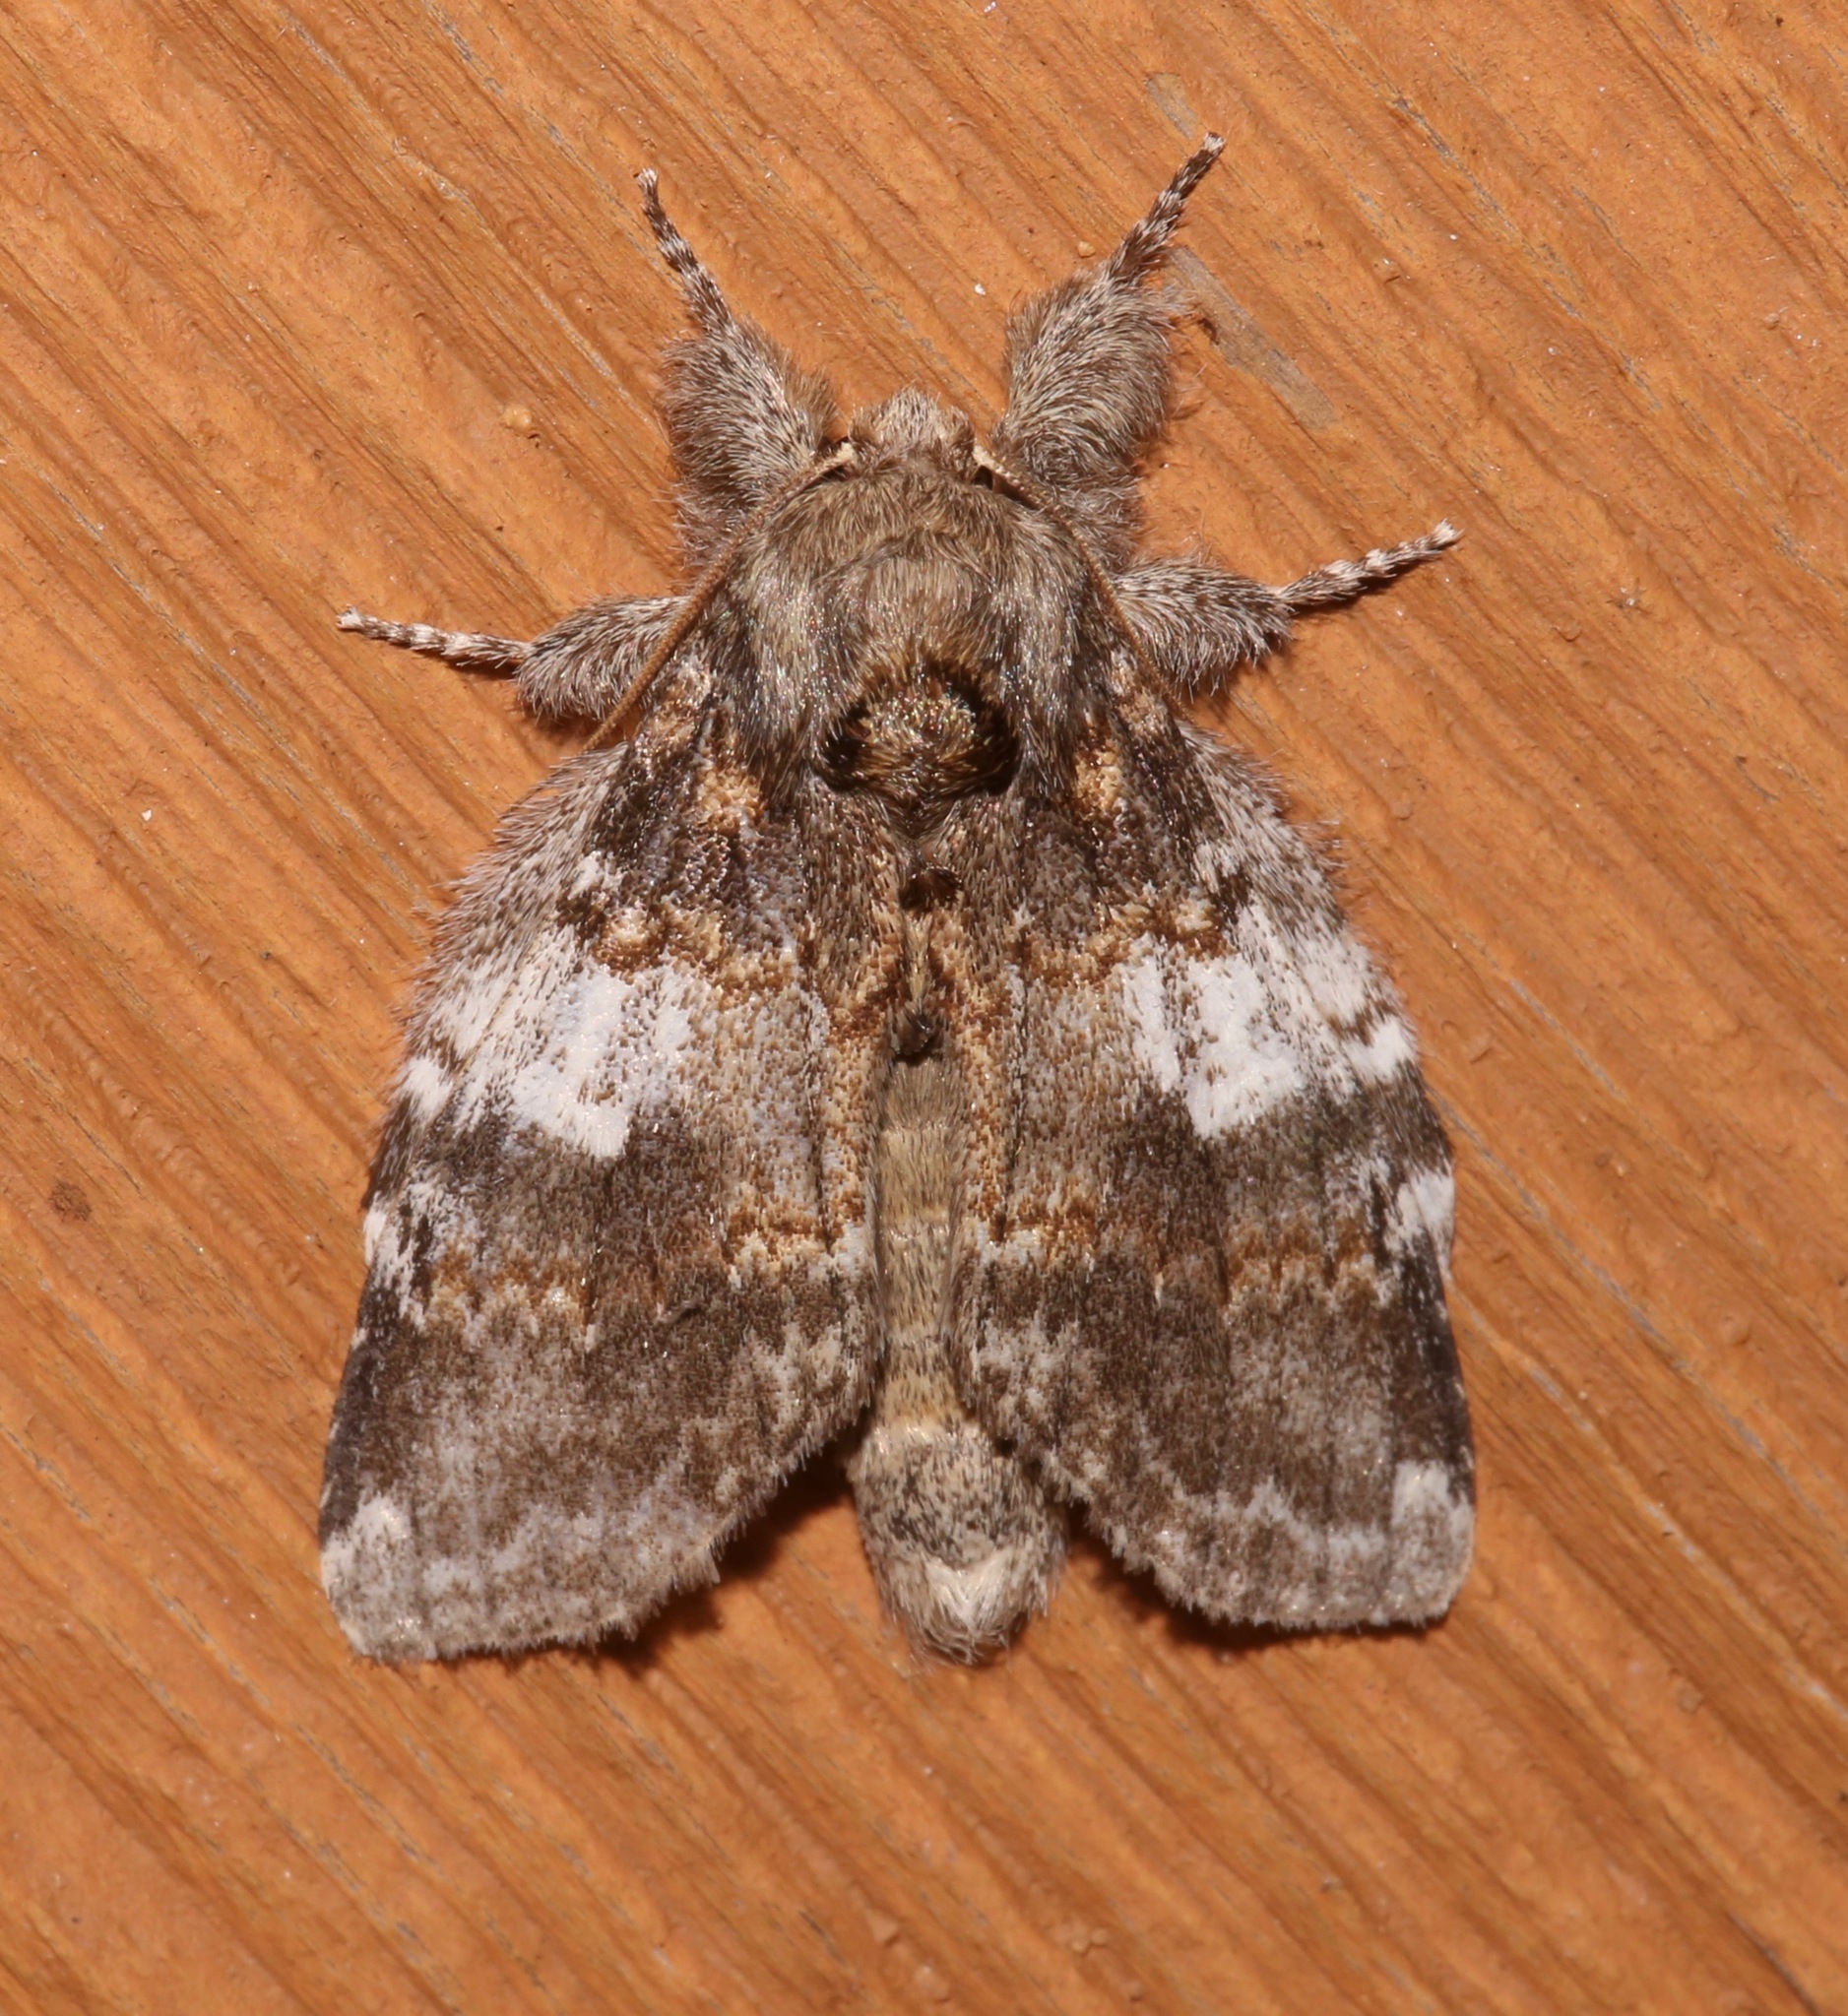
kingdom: Animalia
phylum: Arthropoda
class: Insecta
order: Lepidoptera
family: Notodontidae
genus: Peridea
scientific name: Peridea angulosa
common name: Angulose prominent
